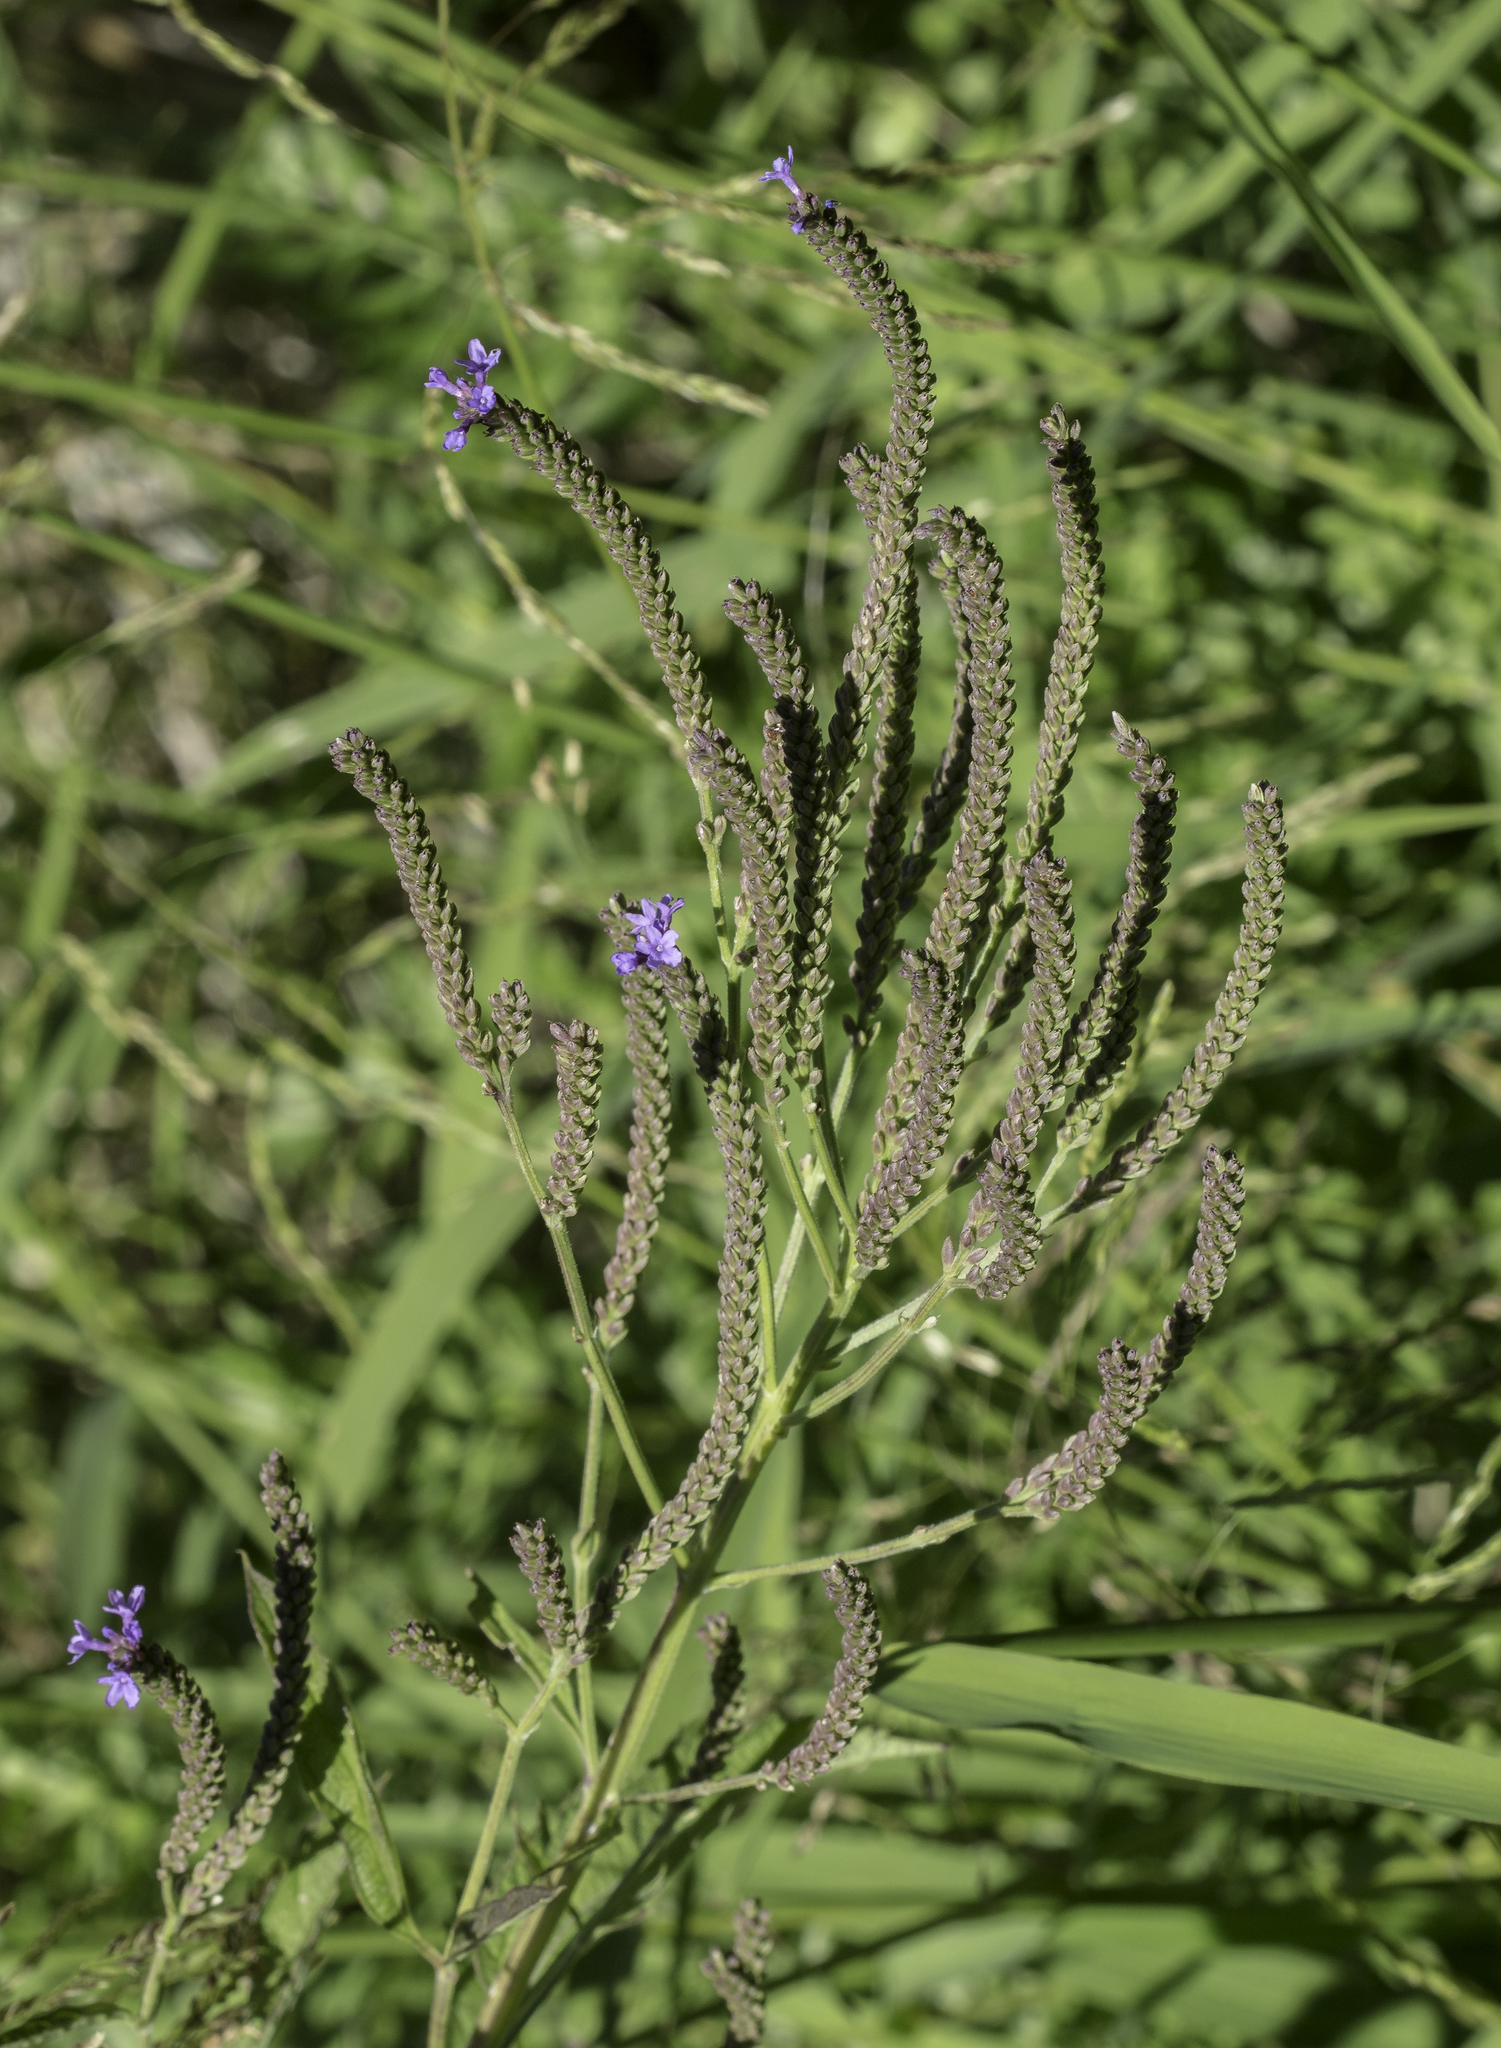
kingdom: Plantae
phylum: Tracheophyta
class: Magnoliopsida
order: Lamiales
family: Verbenaceae
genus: Verbena
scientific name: Verbena hastata
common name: American blue vervain
